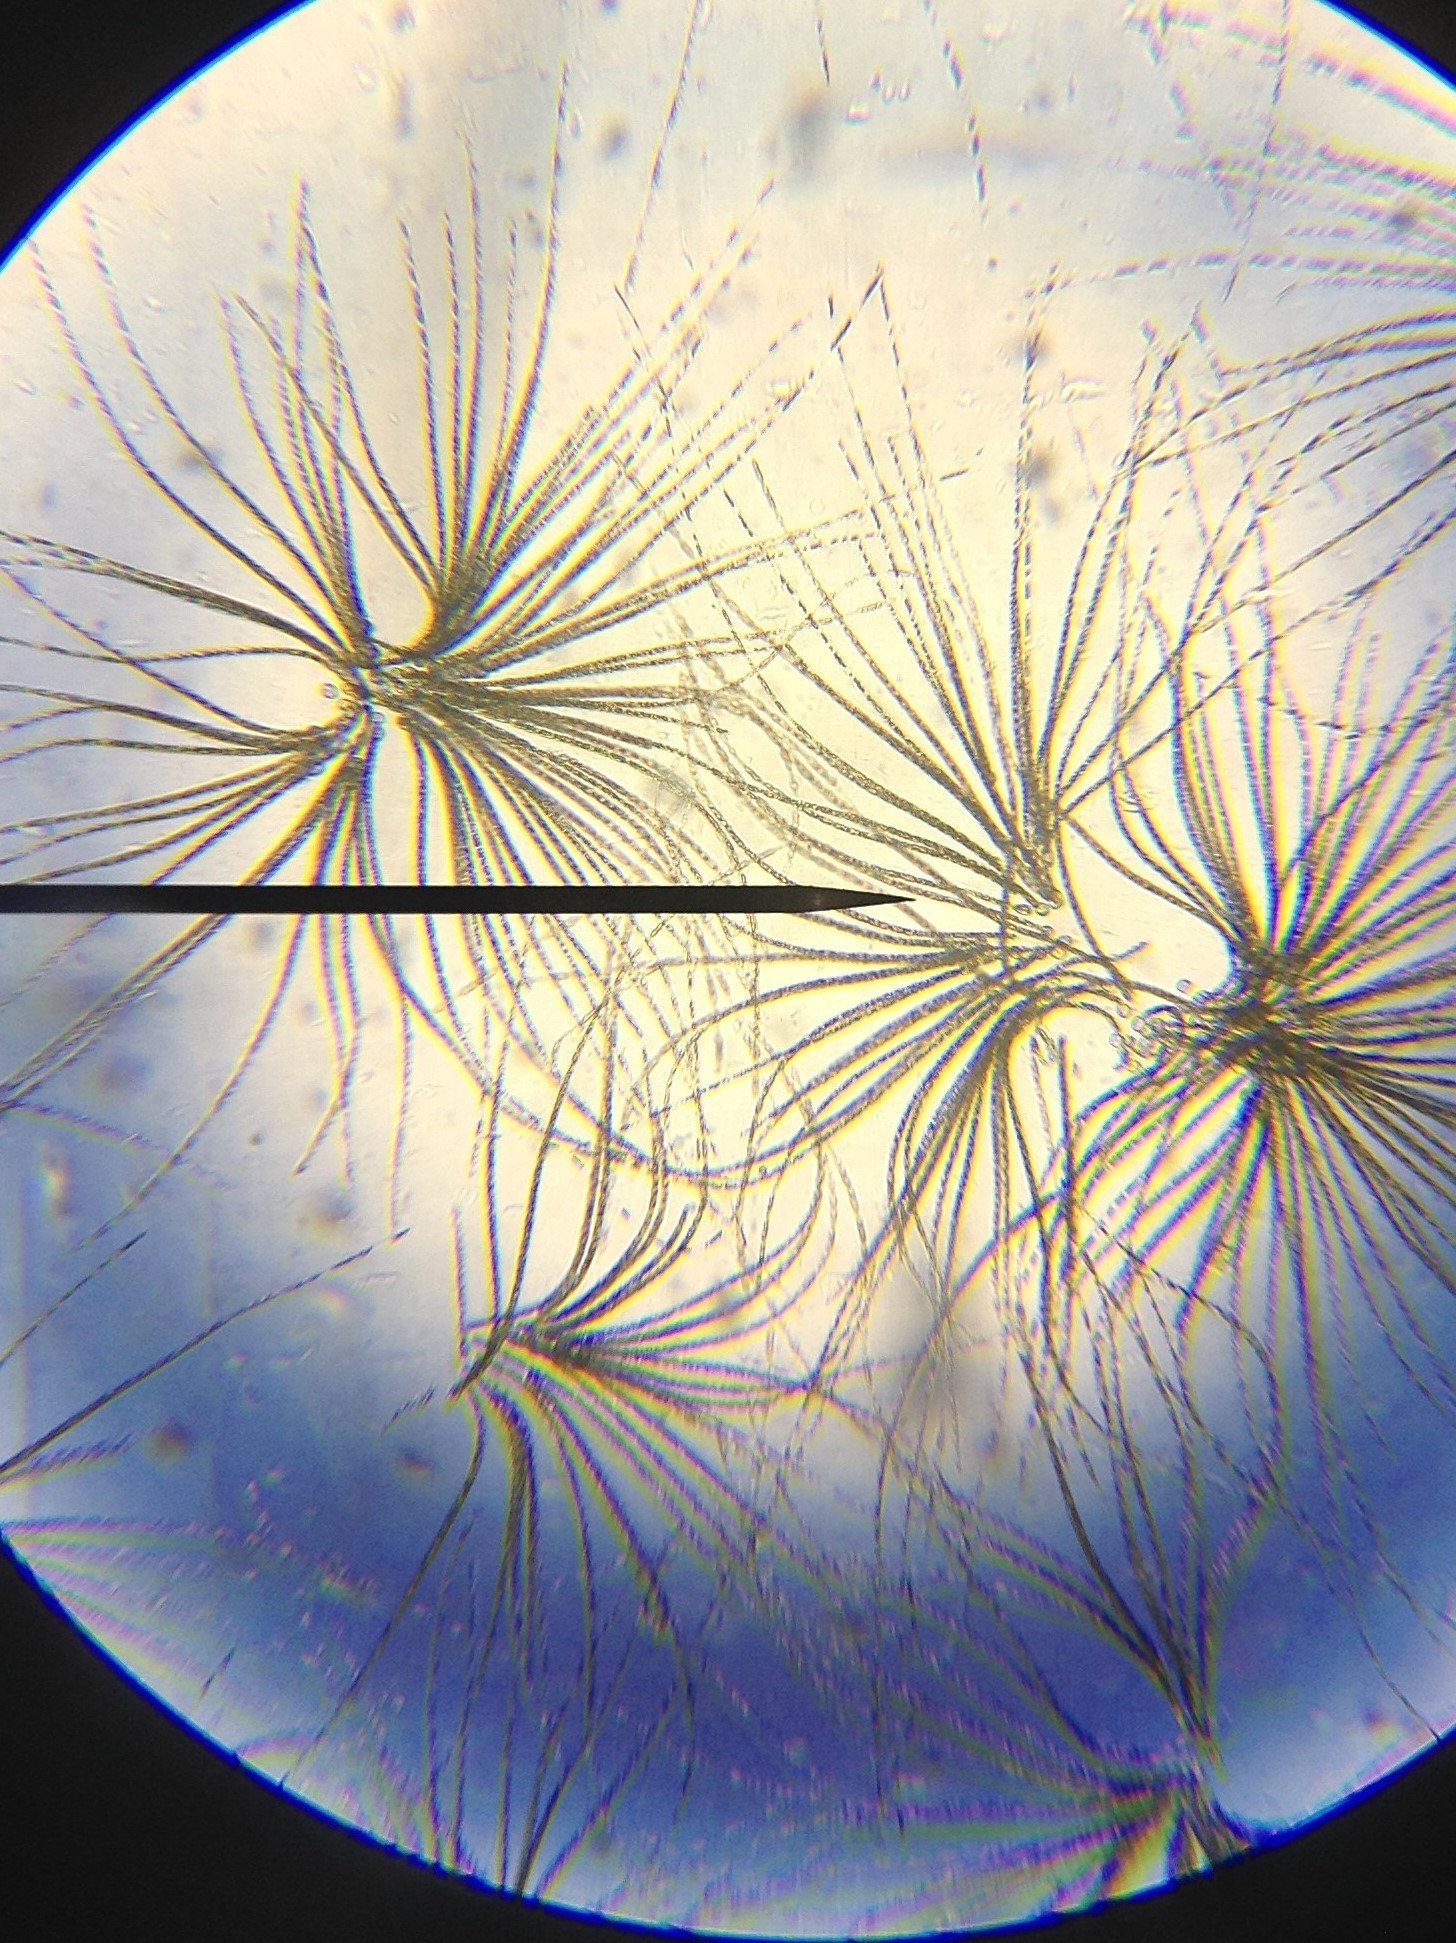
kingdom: Bacteria
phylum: Cyanobacteria
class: Cyanobacteriia
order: Cyanobacteriales
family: Aphanizomenonaceae
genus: Gloeotrichia
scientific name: Gloeotrichia
